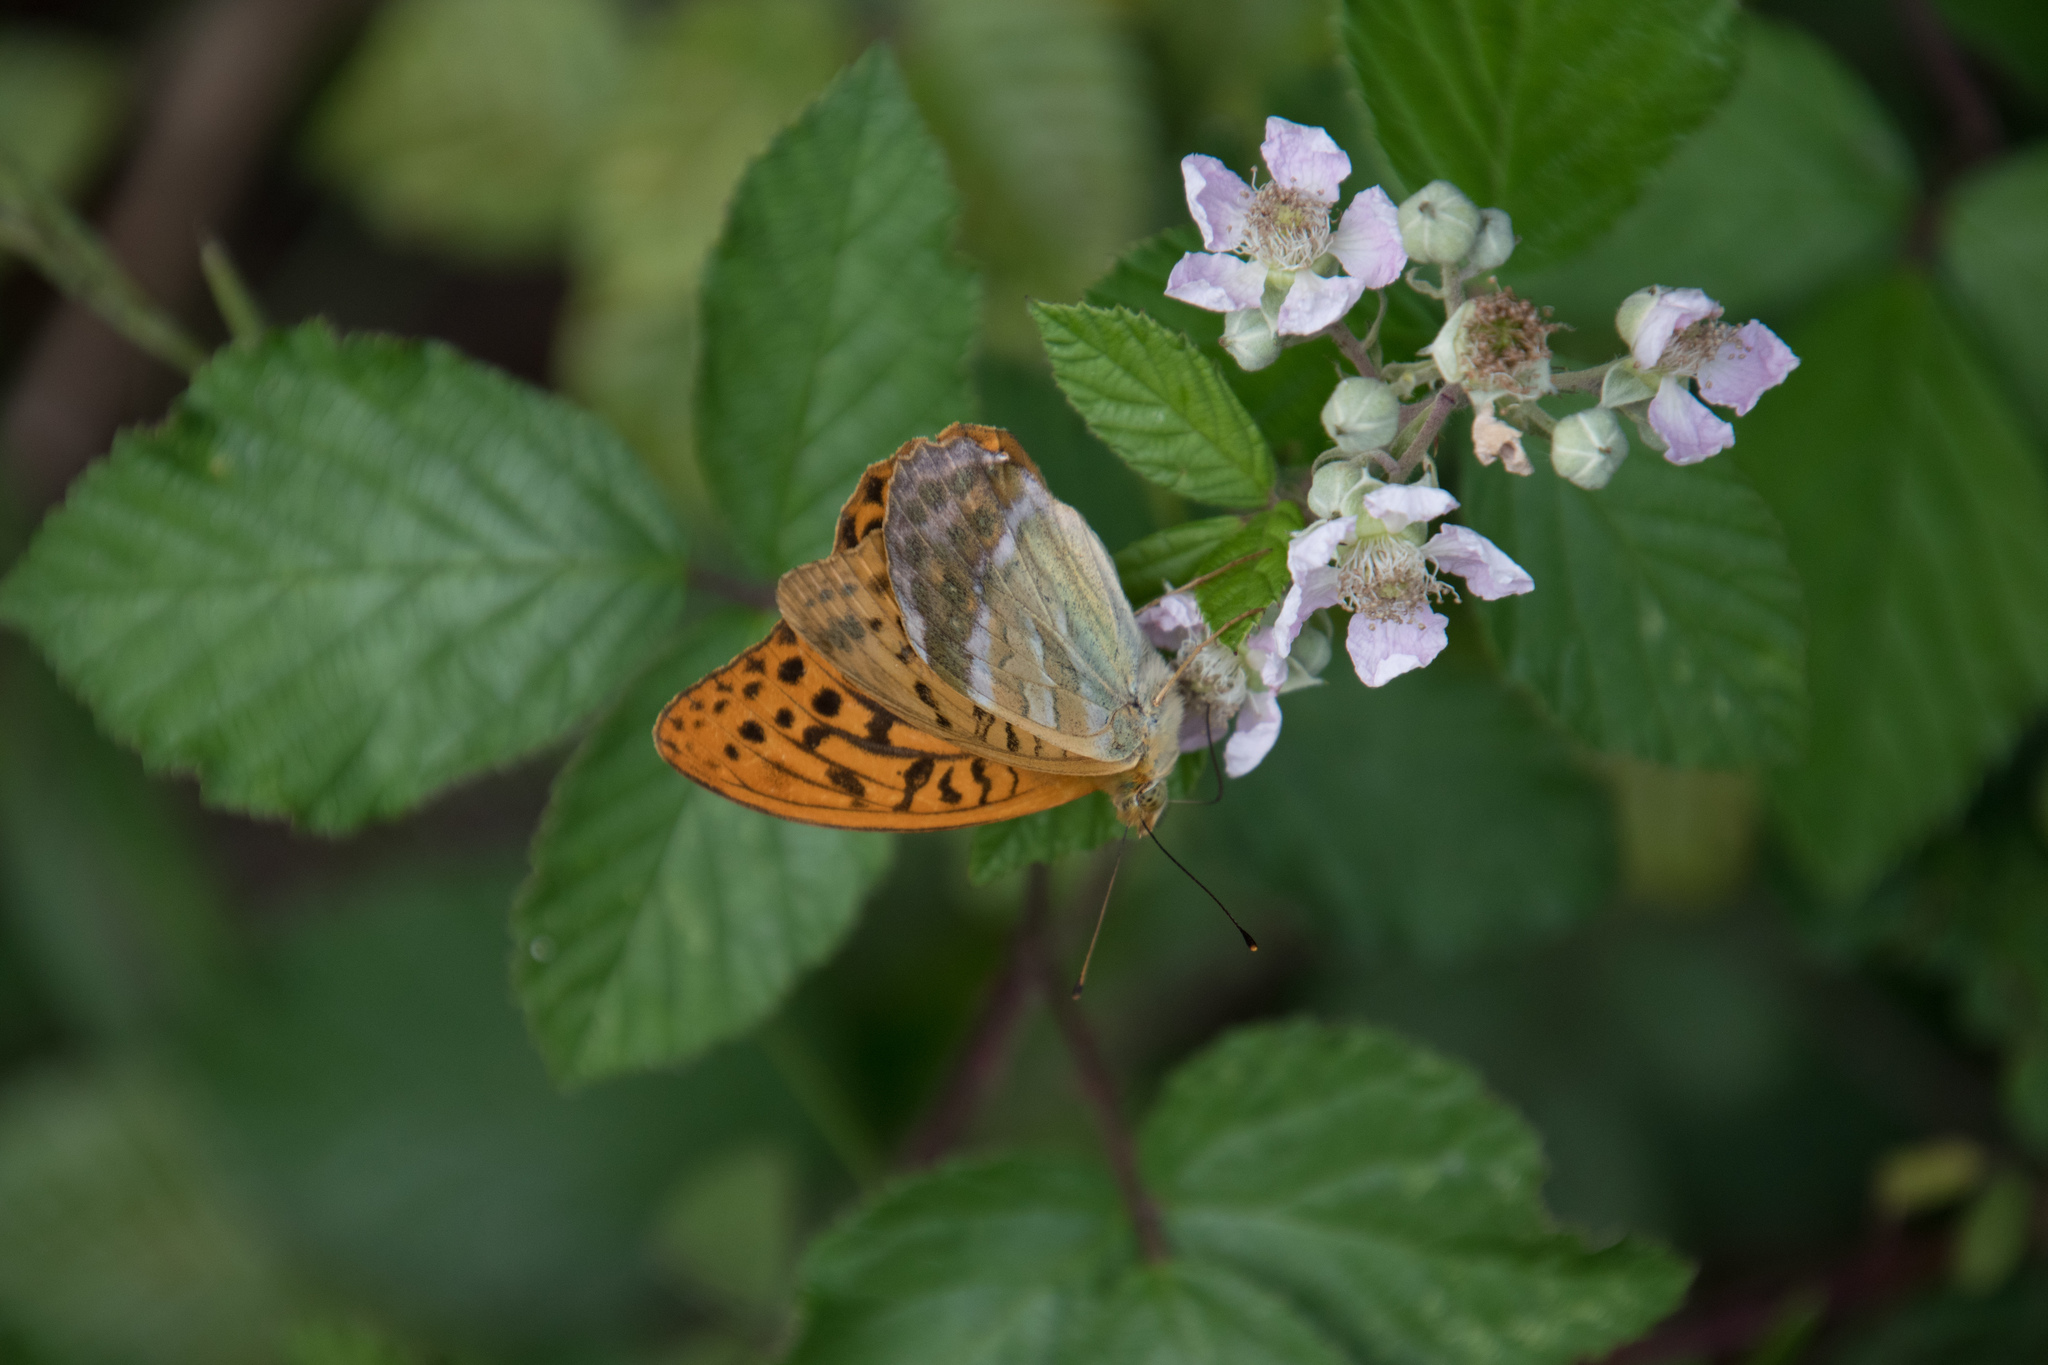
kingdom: Animalia
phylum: Arthropoda
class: Insecta
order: Lepidoptera
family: Nymphalidae
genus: Argynnis
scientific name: Argynnis paphia
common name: Silver-washed fritillary
